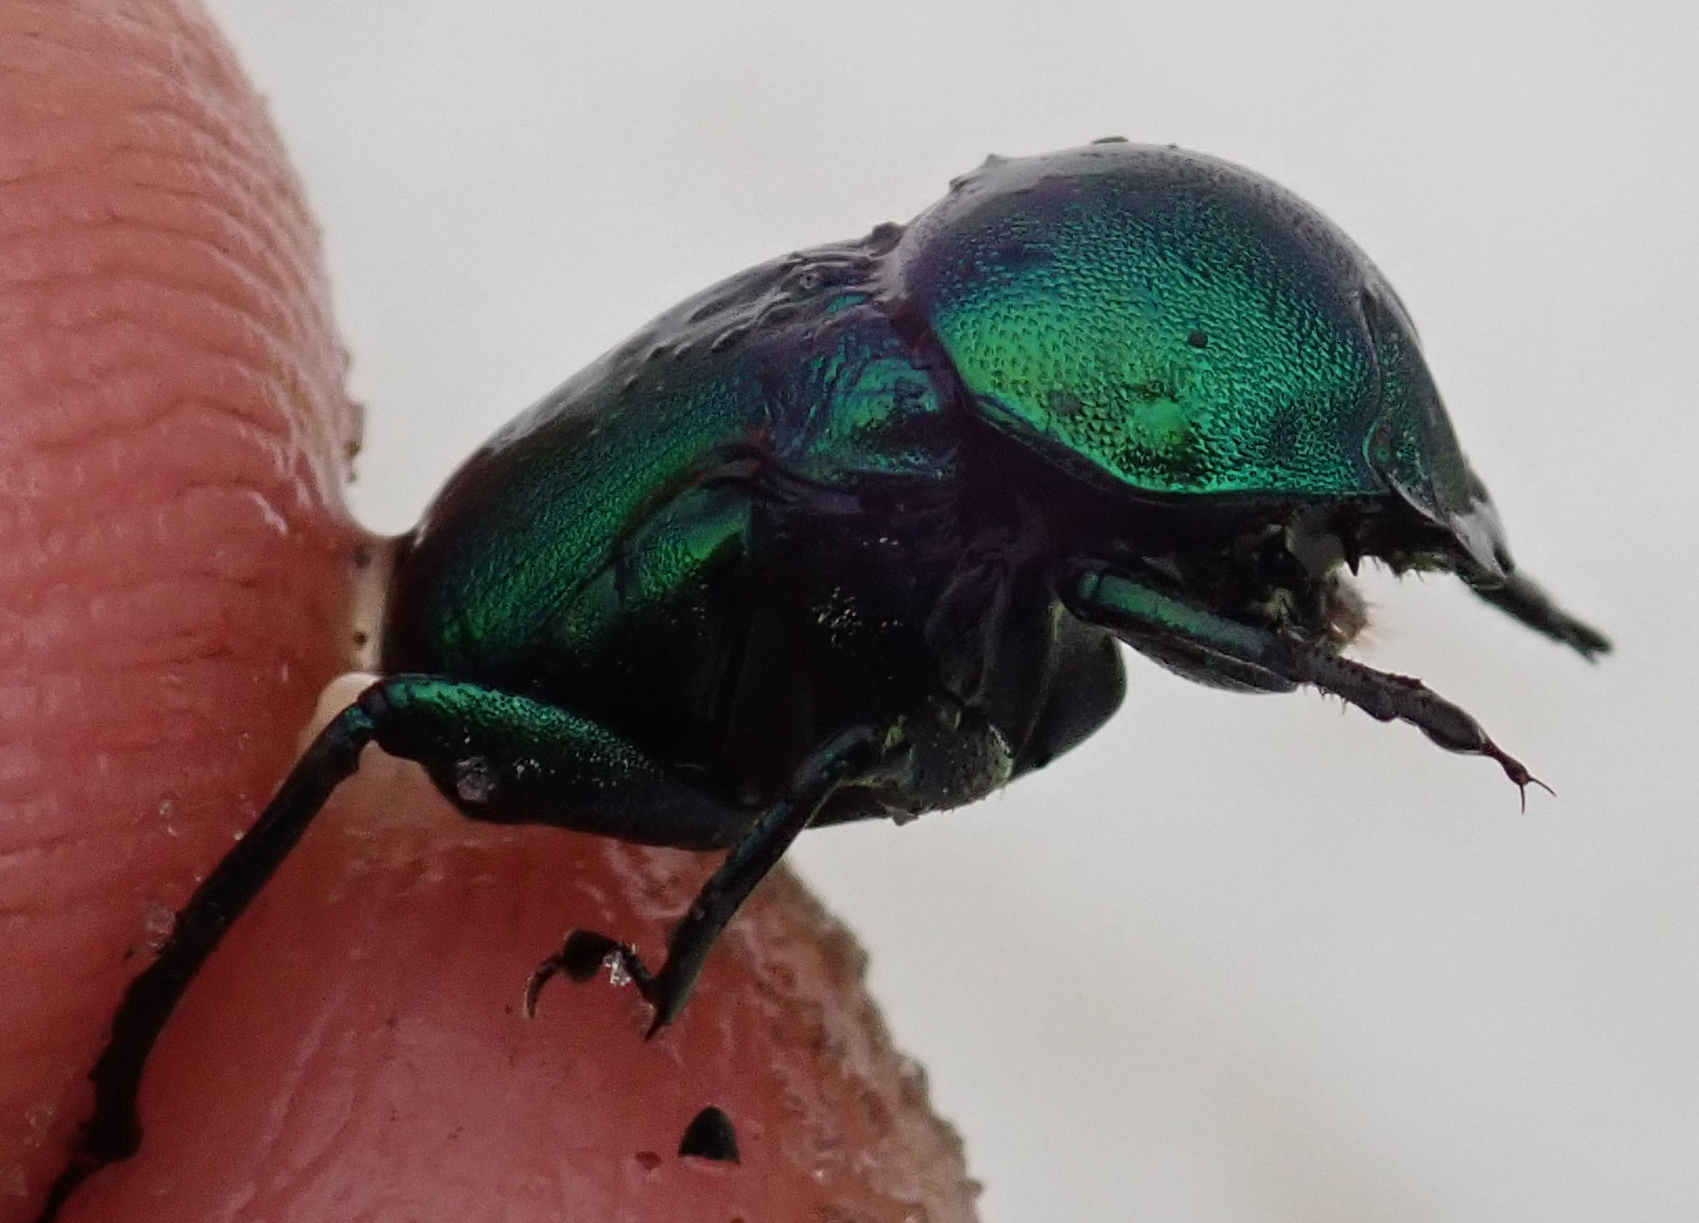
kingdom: Animalia
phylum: Arthropoda
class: Insecta
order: Coleoptera
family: Scarabaeidae
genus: Gymnopleurus
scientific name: Gymnopleurus virens
